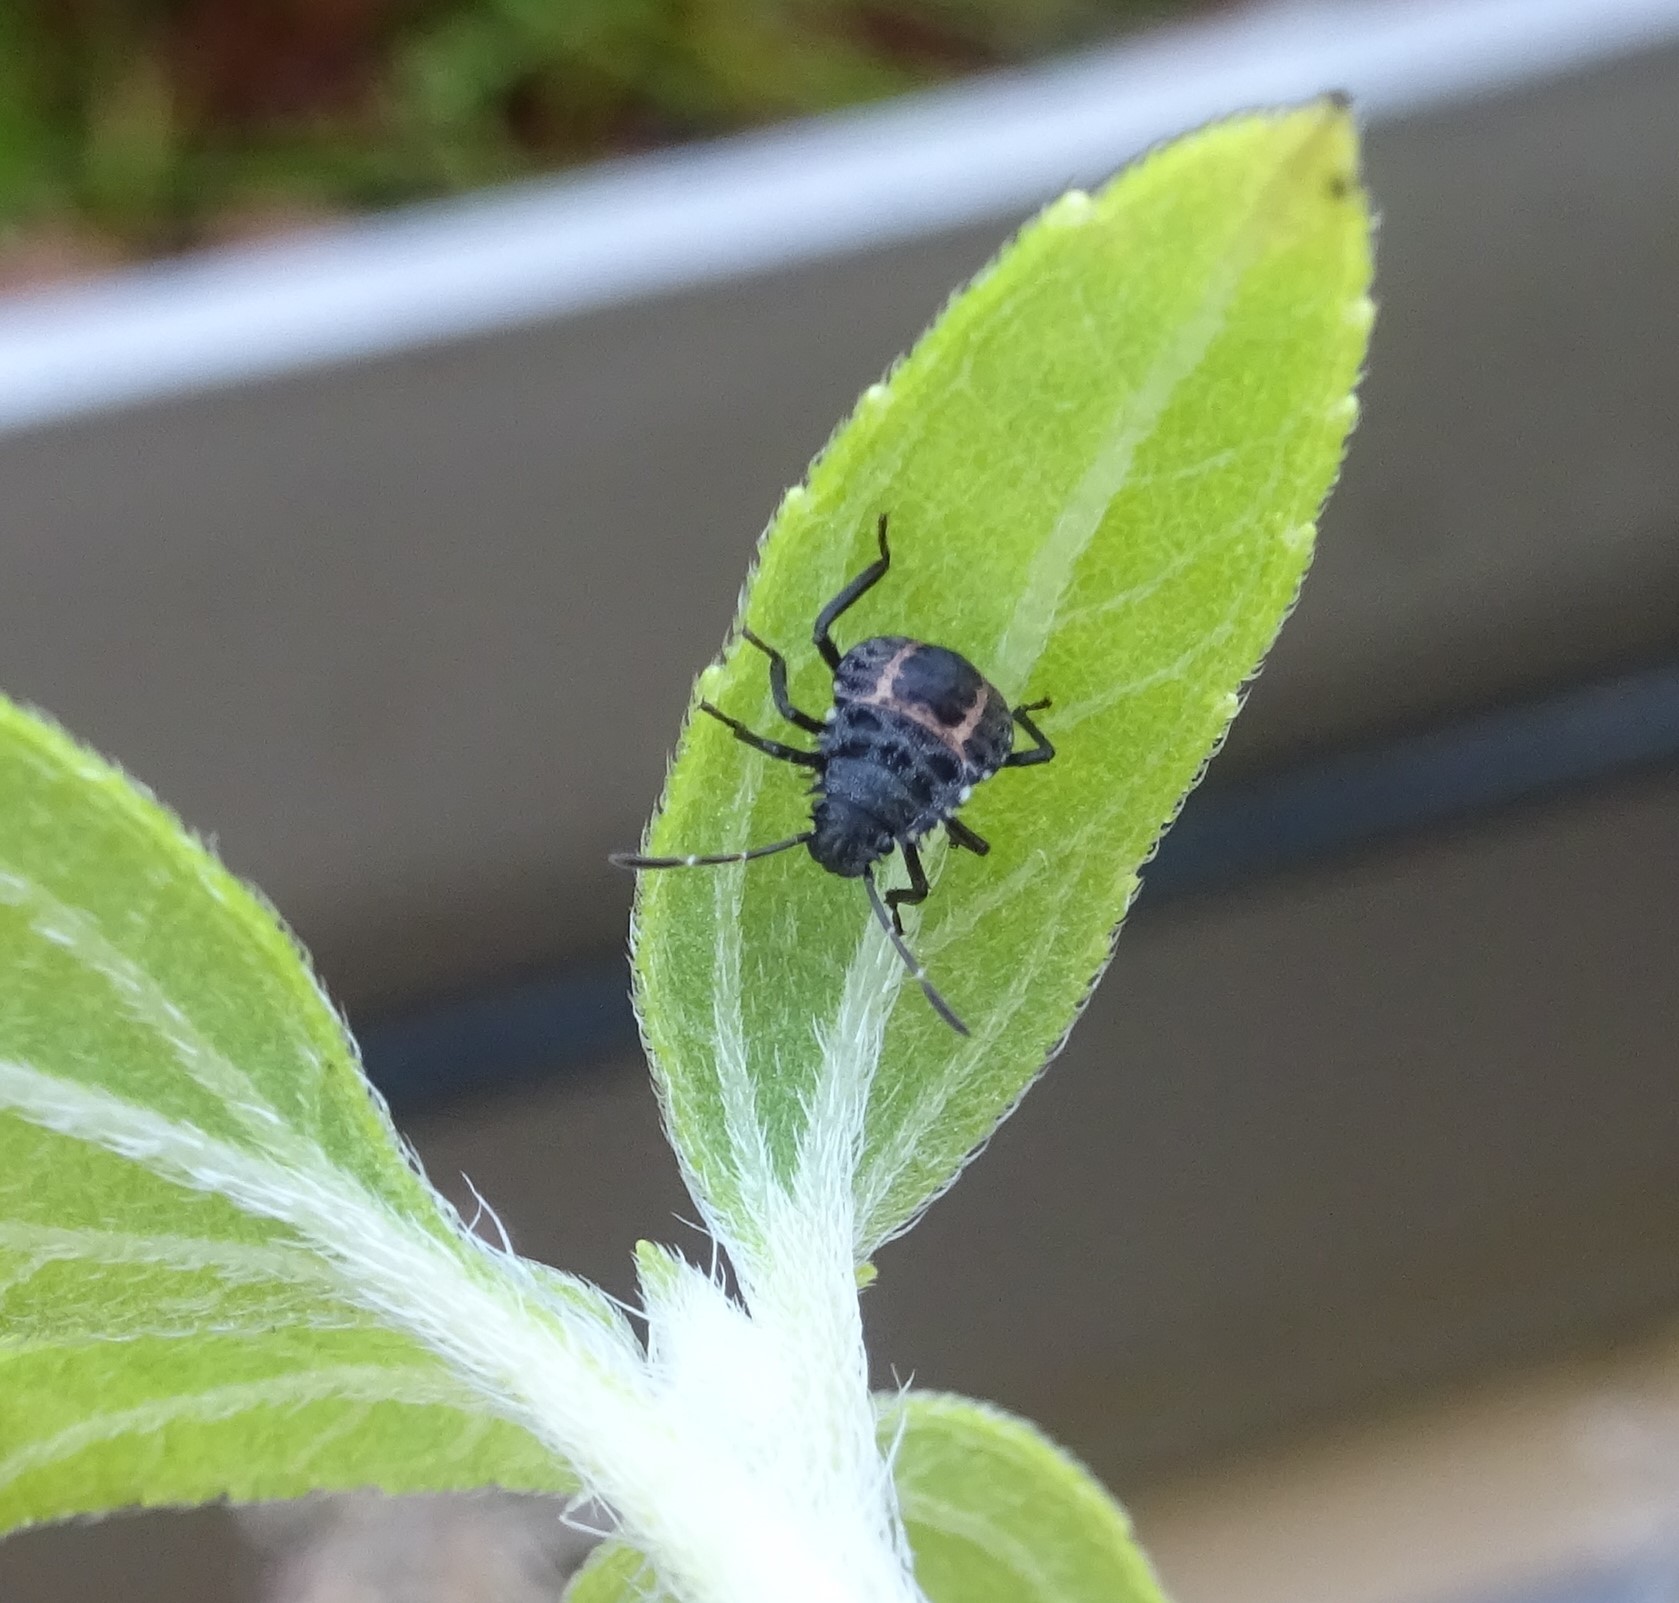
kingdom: Animalia
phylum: Arthropoda
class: Insecta
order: Hemiptera
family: Pentatomidae
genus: Halyomorpha
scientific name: Halyomorpha halys
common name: Brown marmorated stink bug
